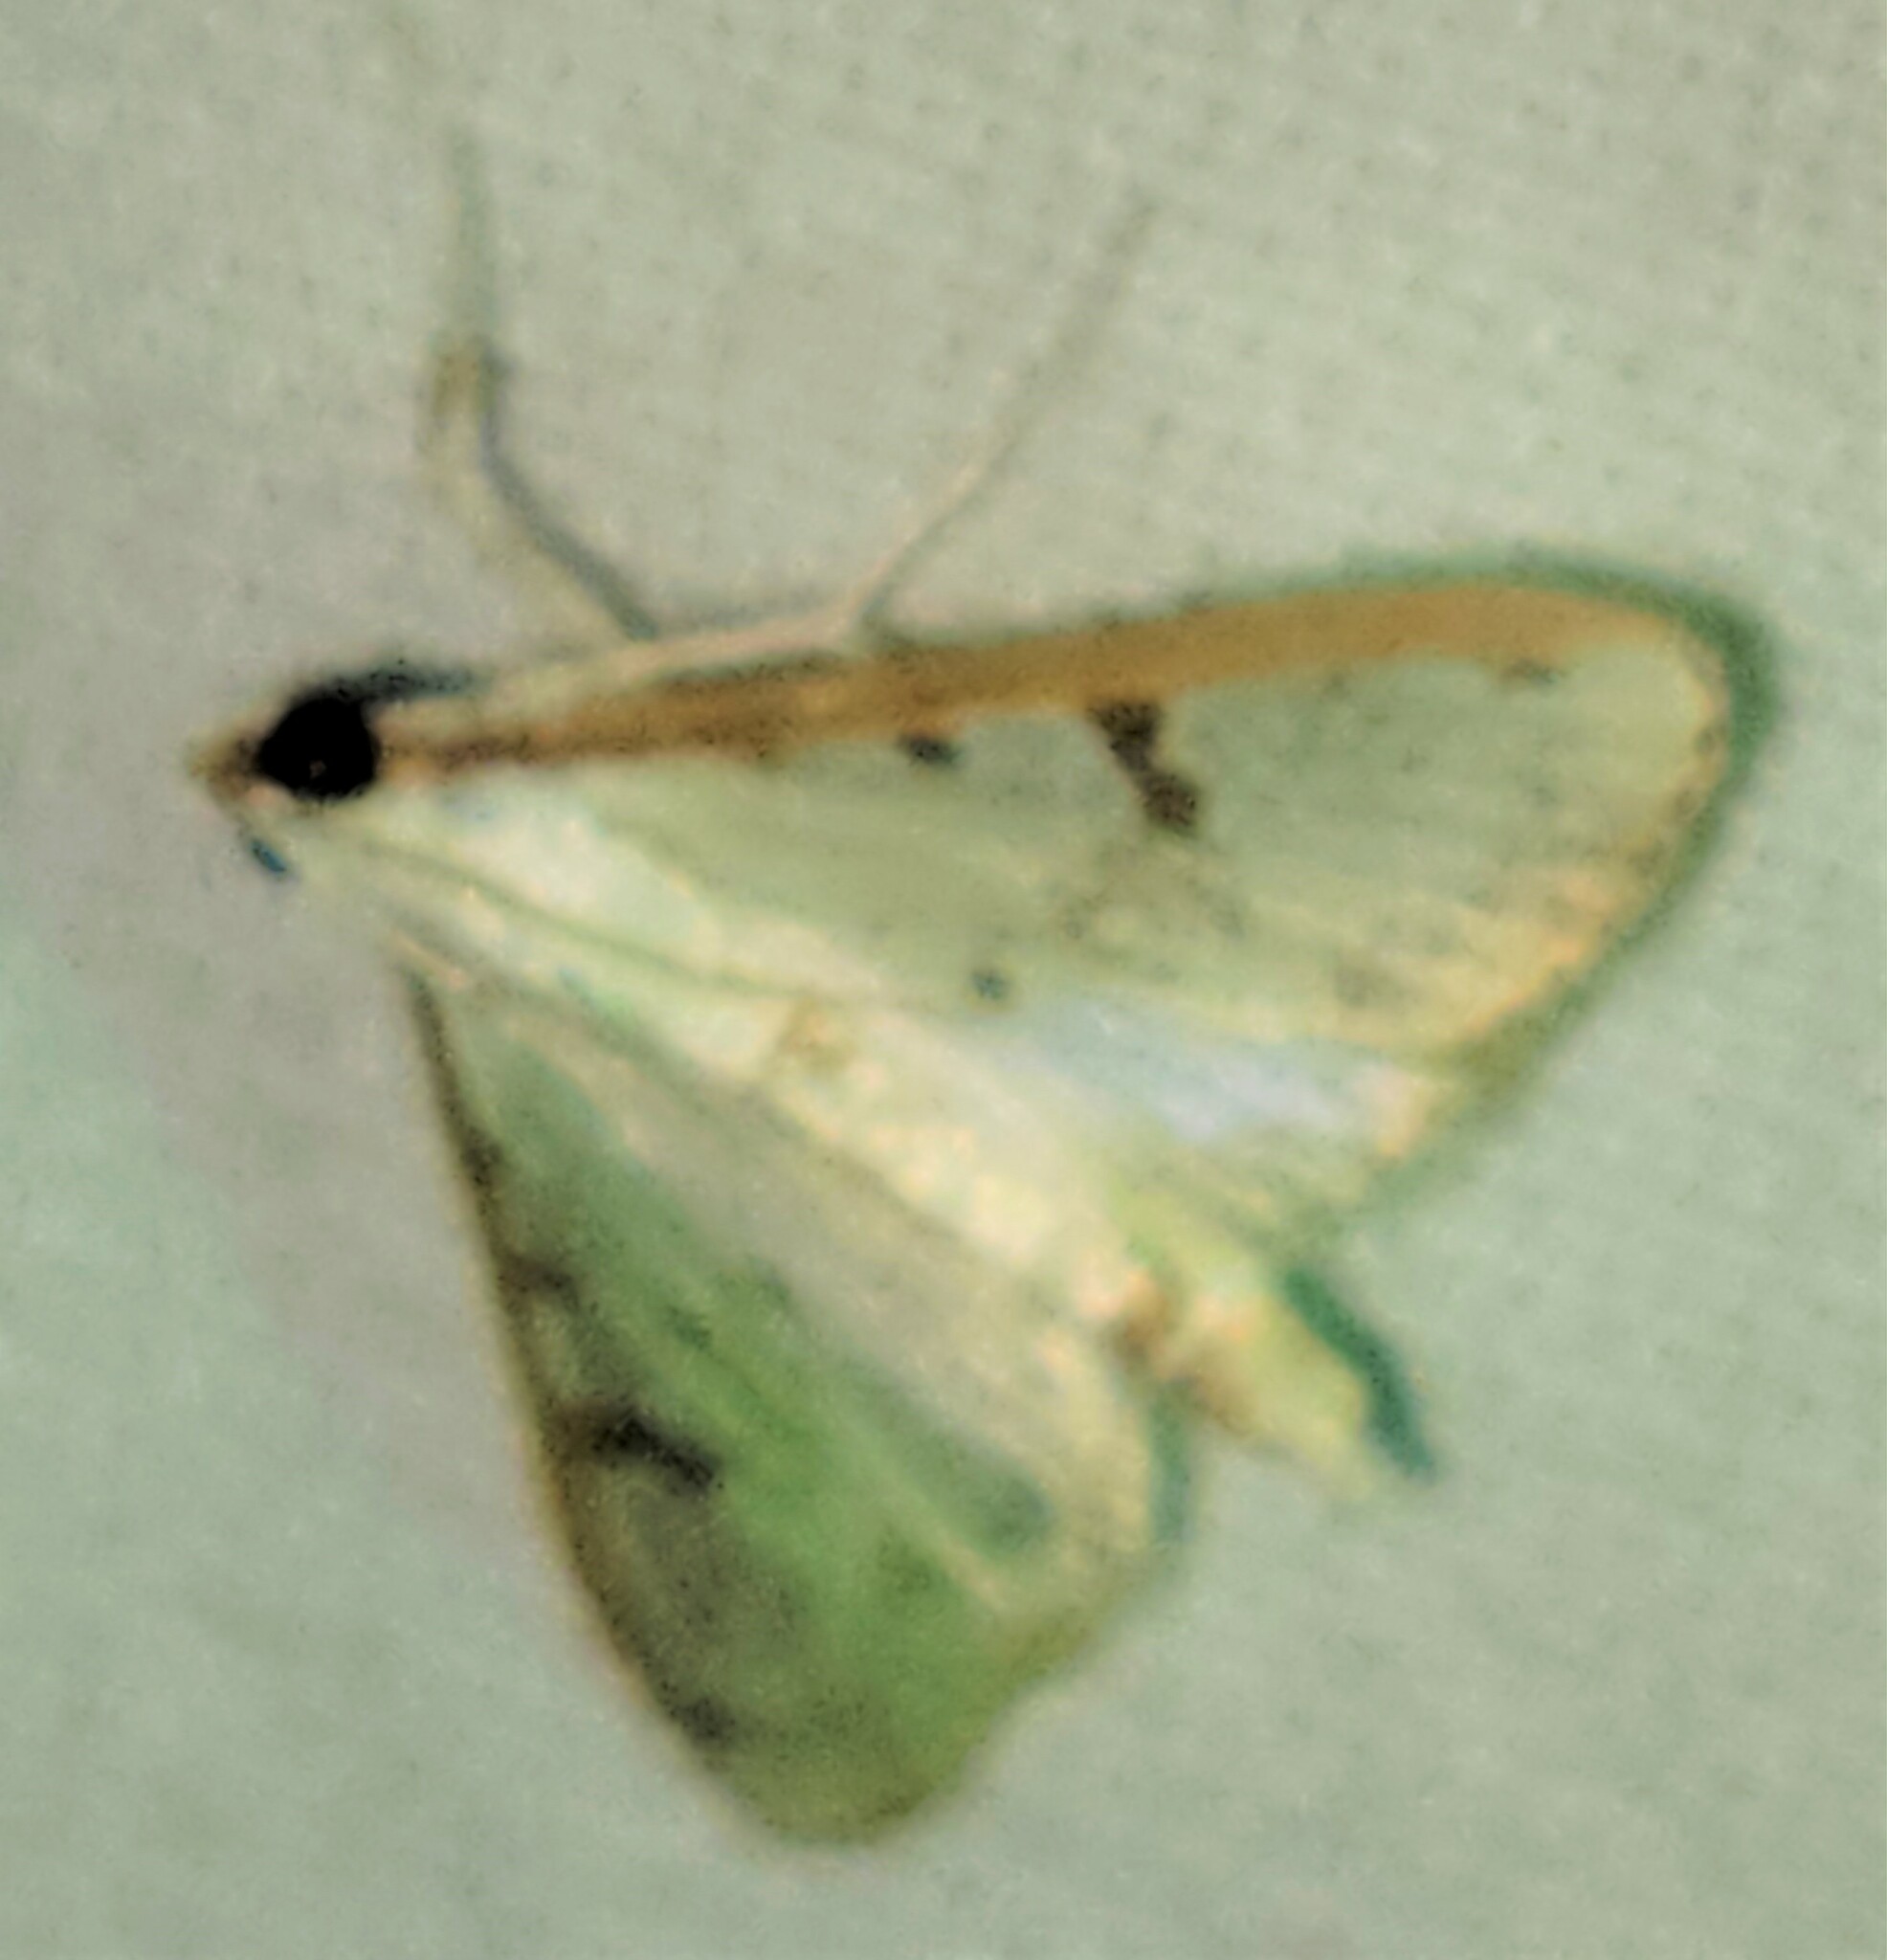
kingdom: Animalia
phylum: Arthropoda
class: Insecta
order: Lepidoptera
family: Crambidae
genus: Palpita
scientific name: Palpita gracilalis
